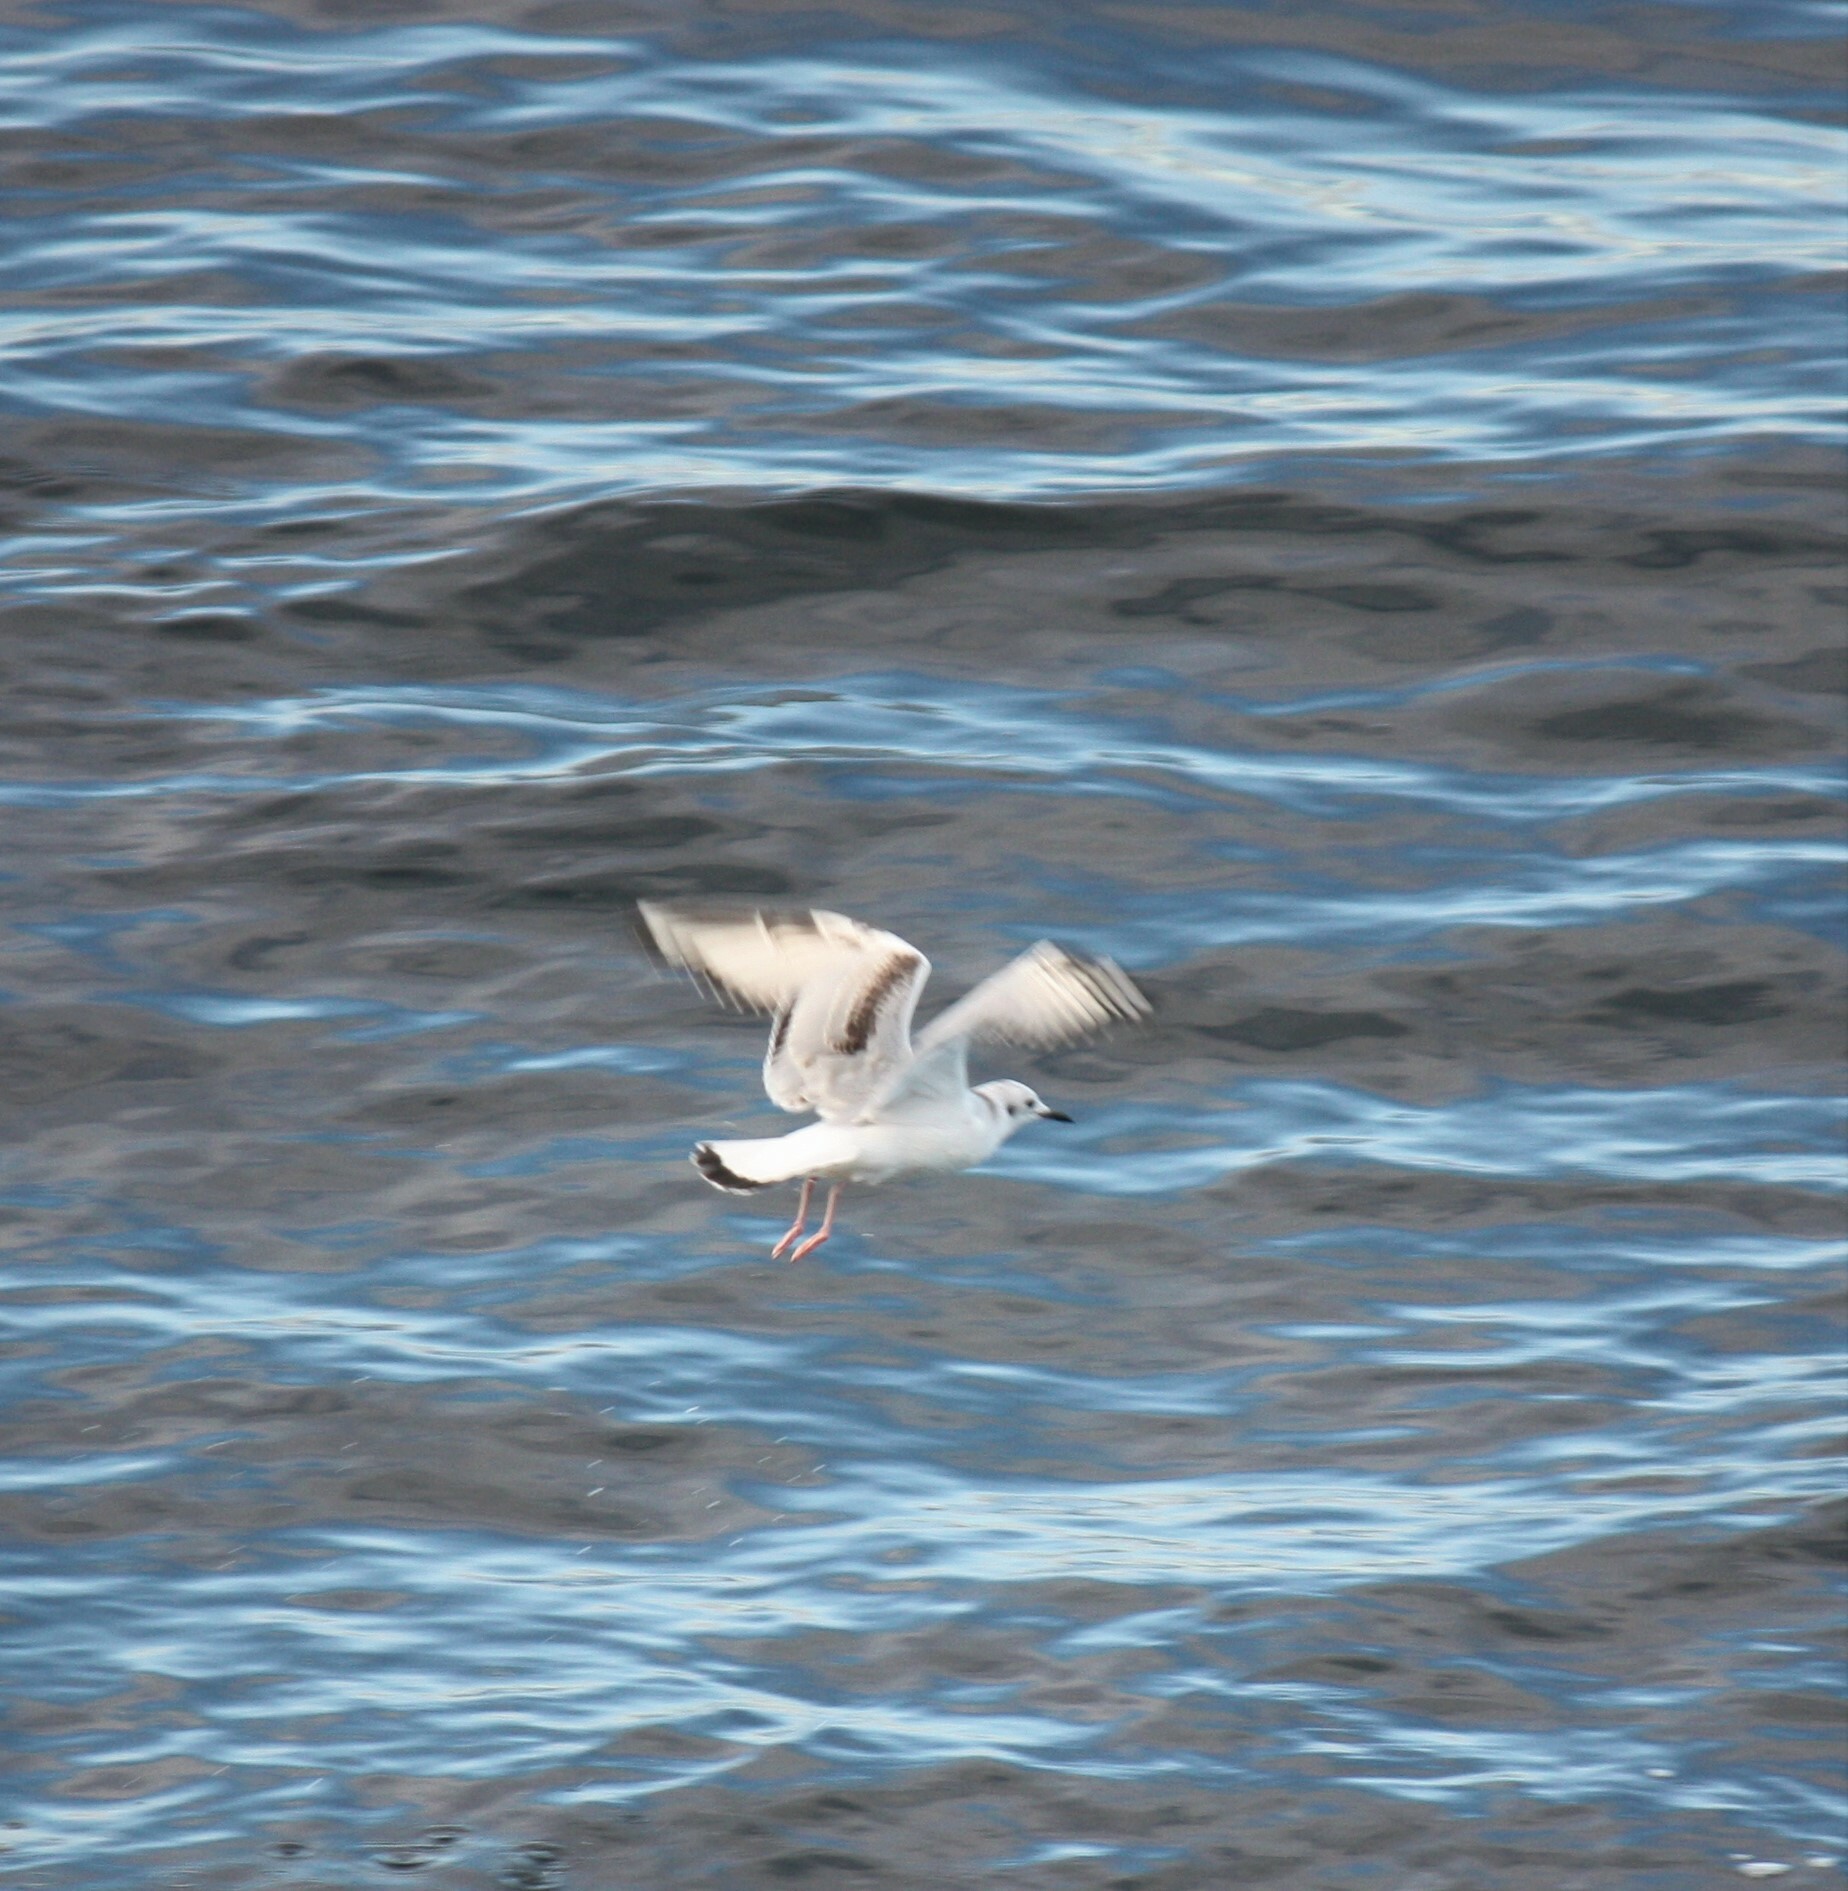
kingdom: Animalia
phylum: Chordata
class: Aves
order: Charadriiformes
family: Laridae
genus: Chroicocephalus
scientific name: Chroicocephalus philadelphia
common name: Bonaparte's gull
